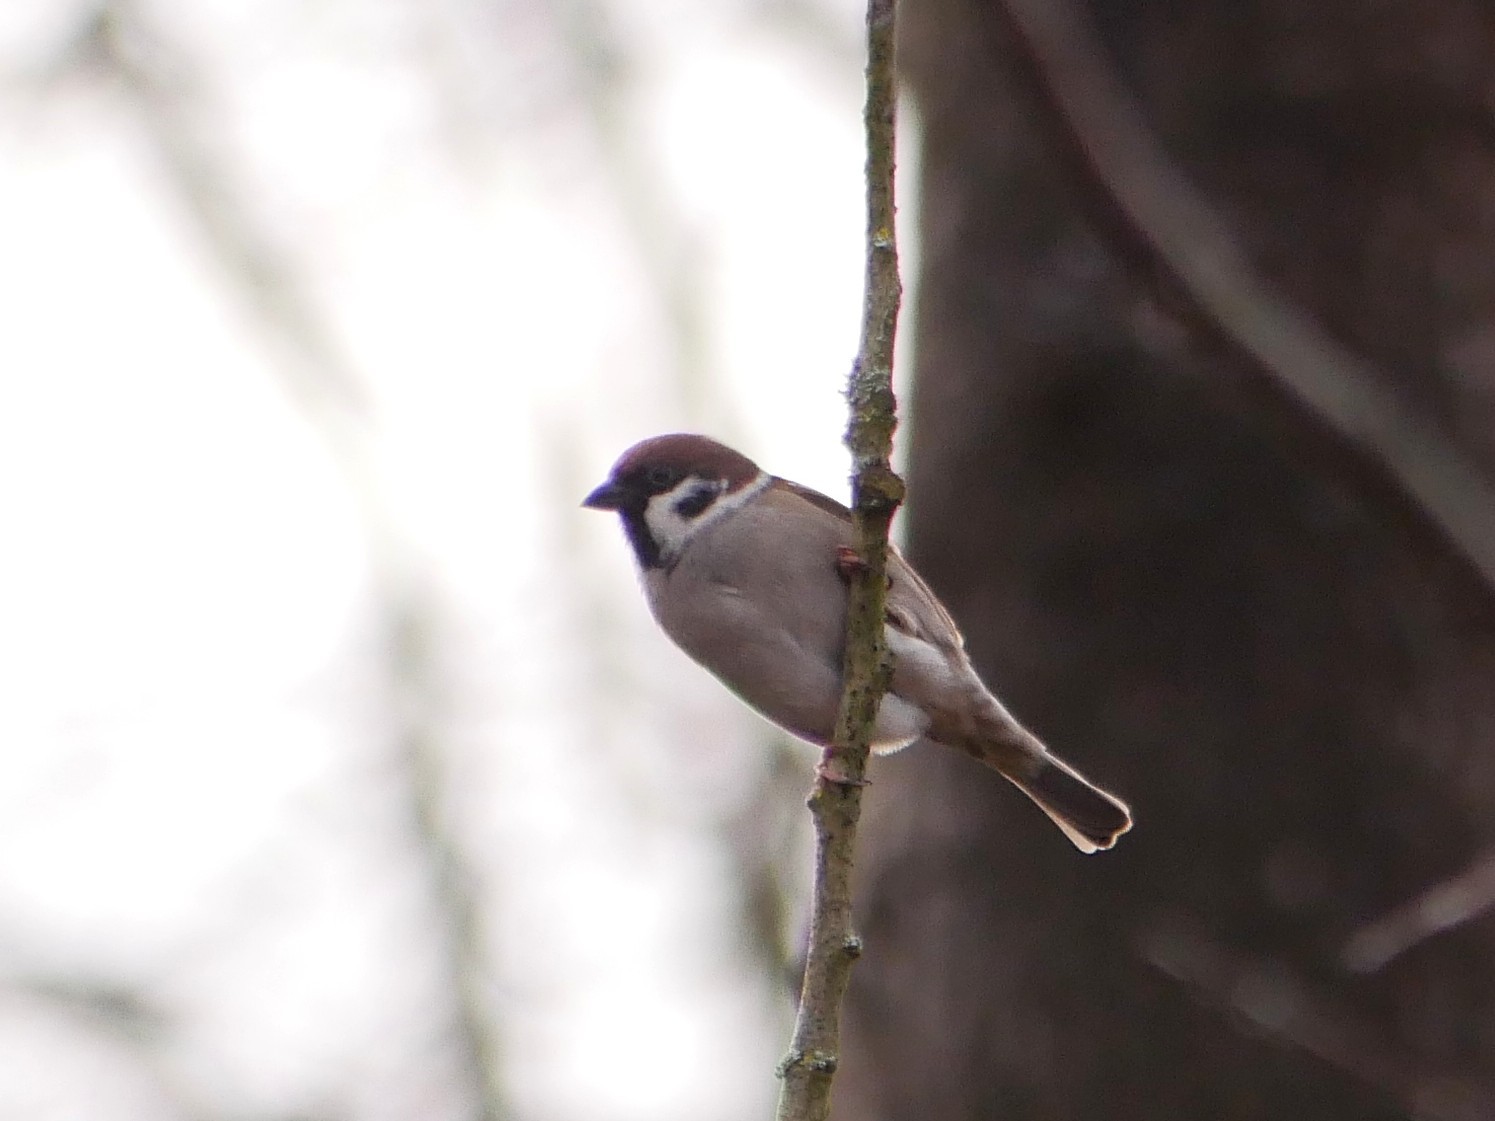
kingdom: Animalia
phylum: Chordata
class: Aves
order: Passeriformes
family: Passeridae
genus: Passer
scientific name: Passer montanus
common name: Eurasian tree sparrow
